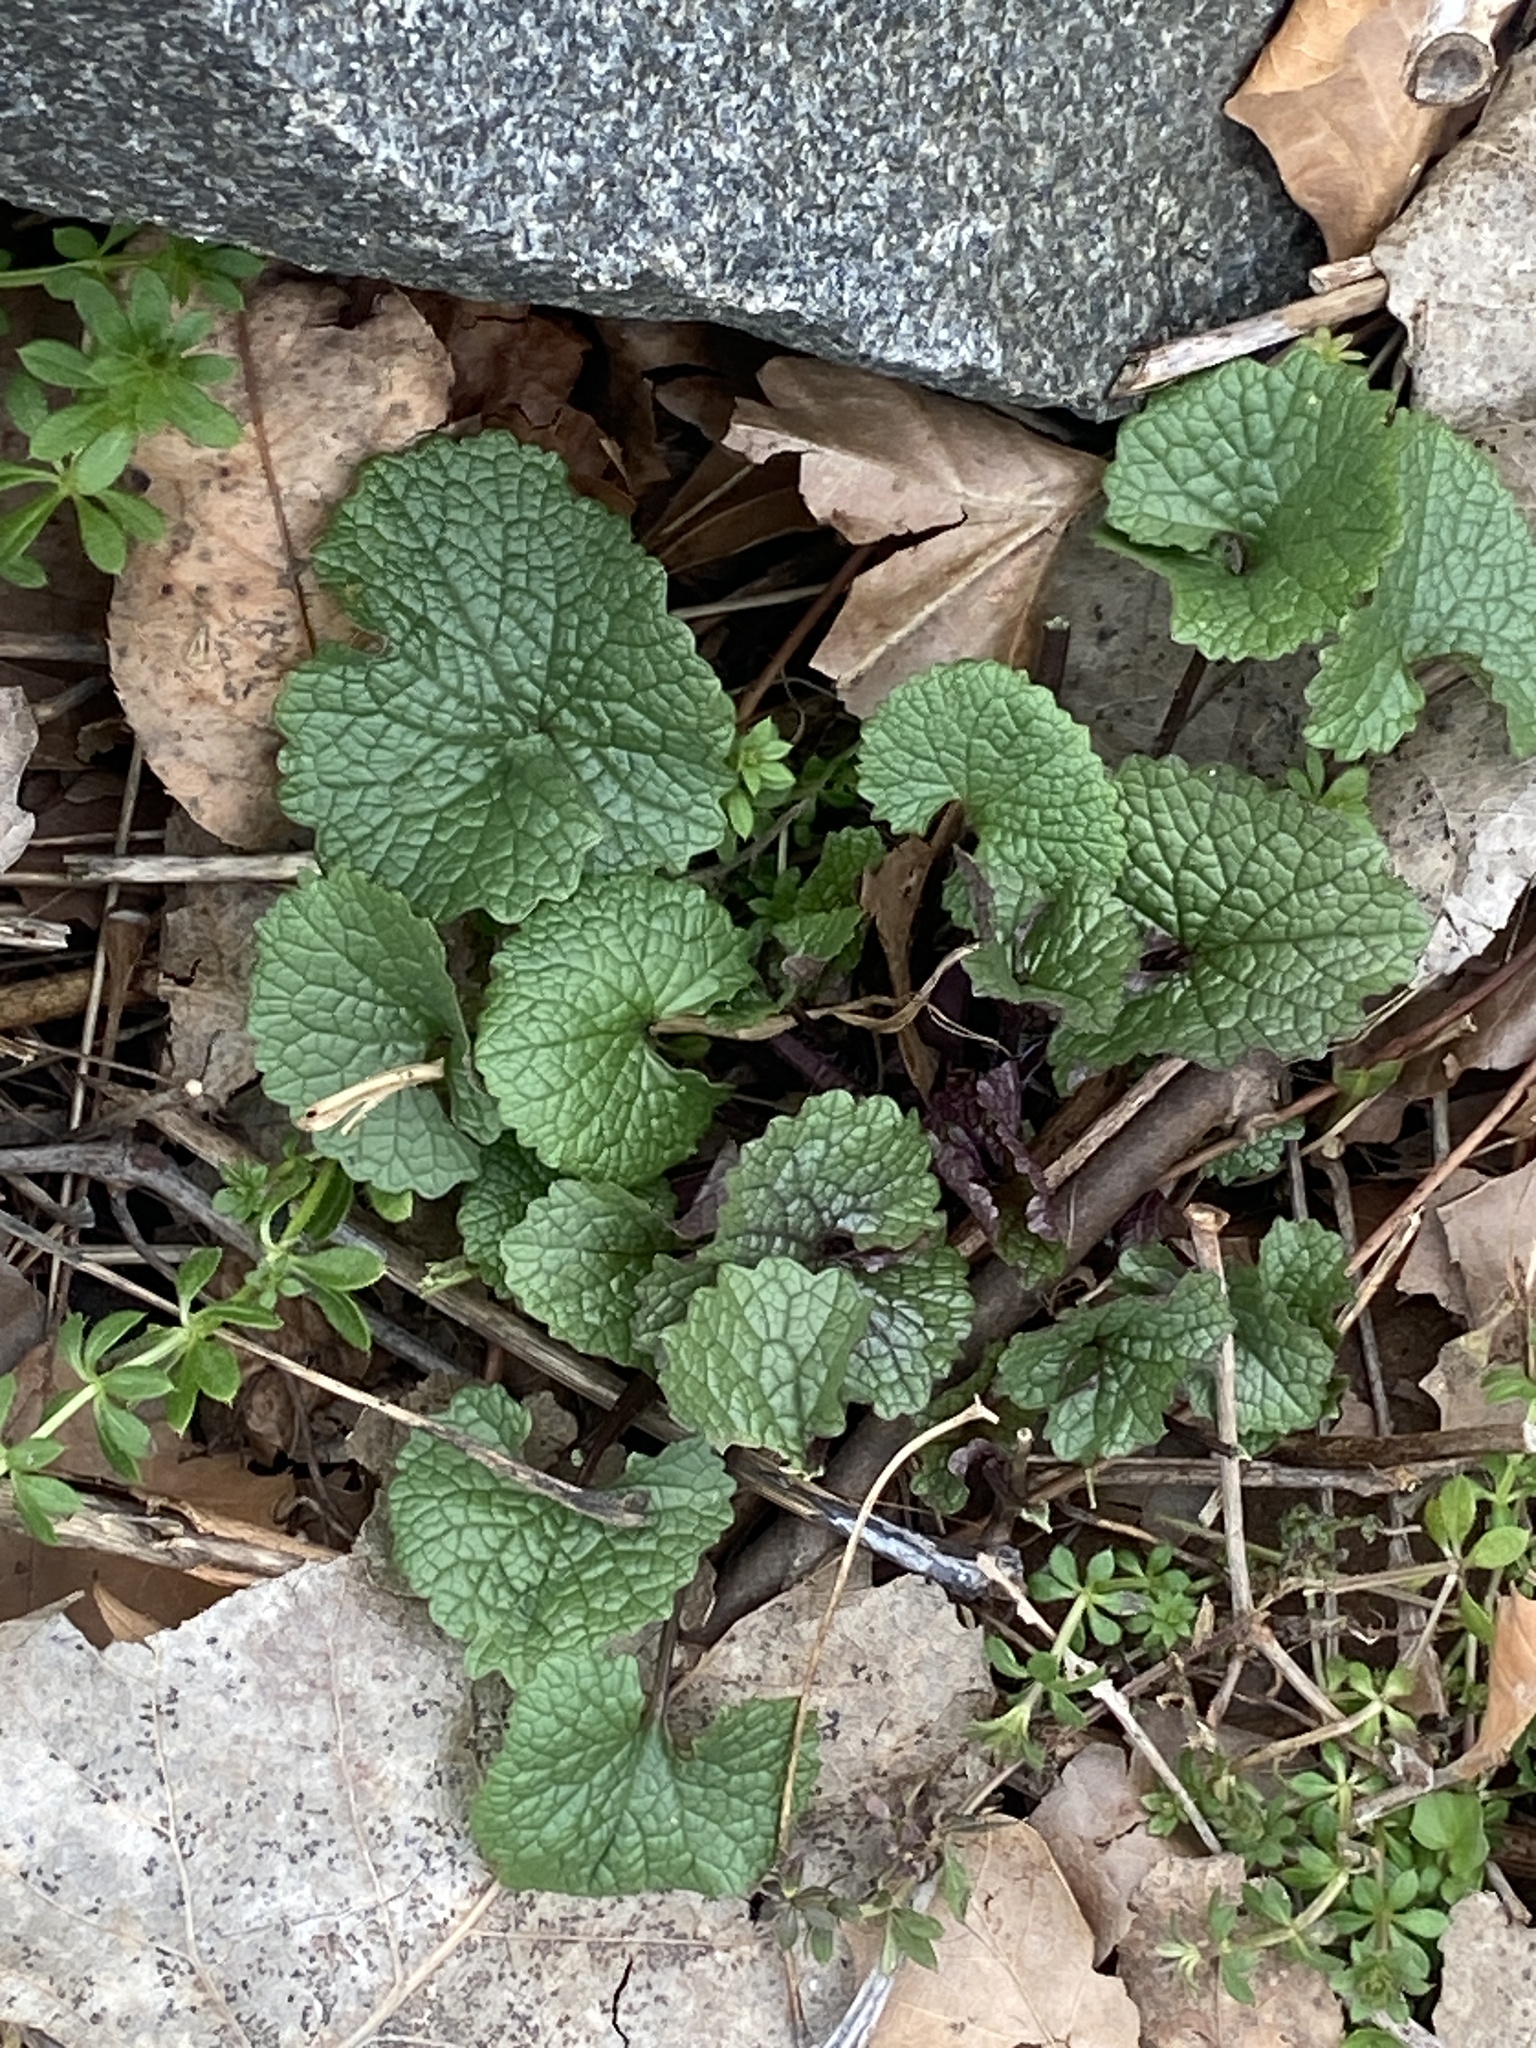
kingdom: Plantae
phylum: Tracheophyta
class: Magnoliopsida
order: Brassicales
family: Brassicaceae
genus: Alliaria
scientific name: Alliaria petiolata
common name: Garlic mustard
